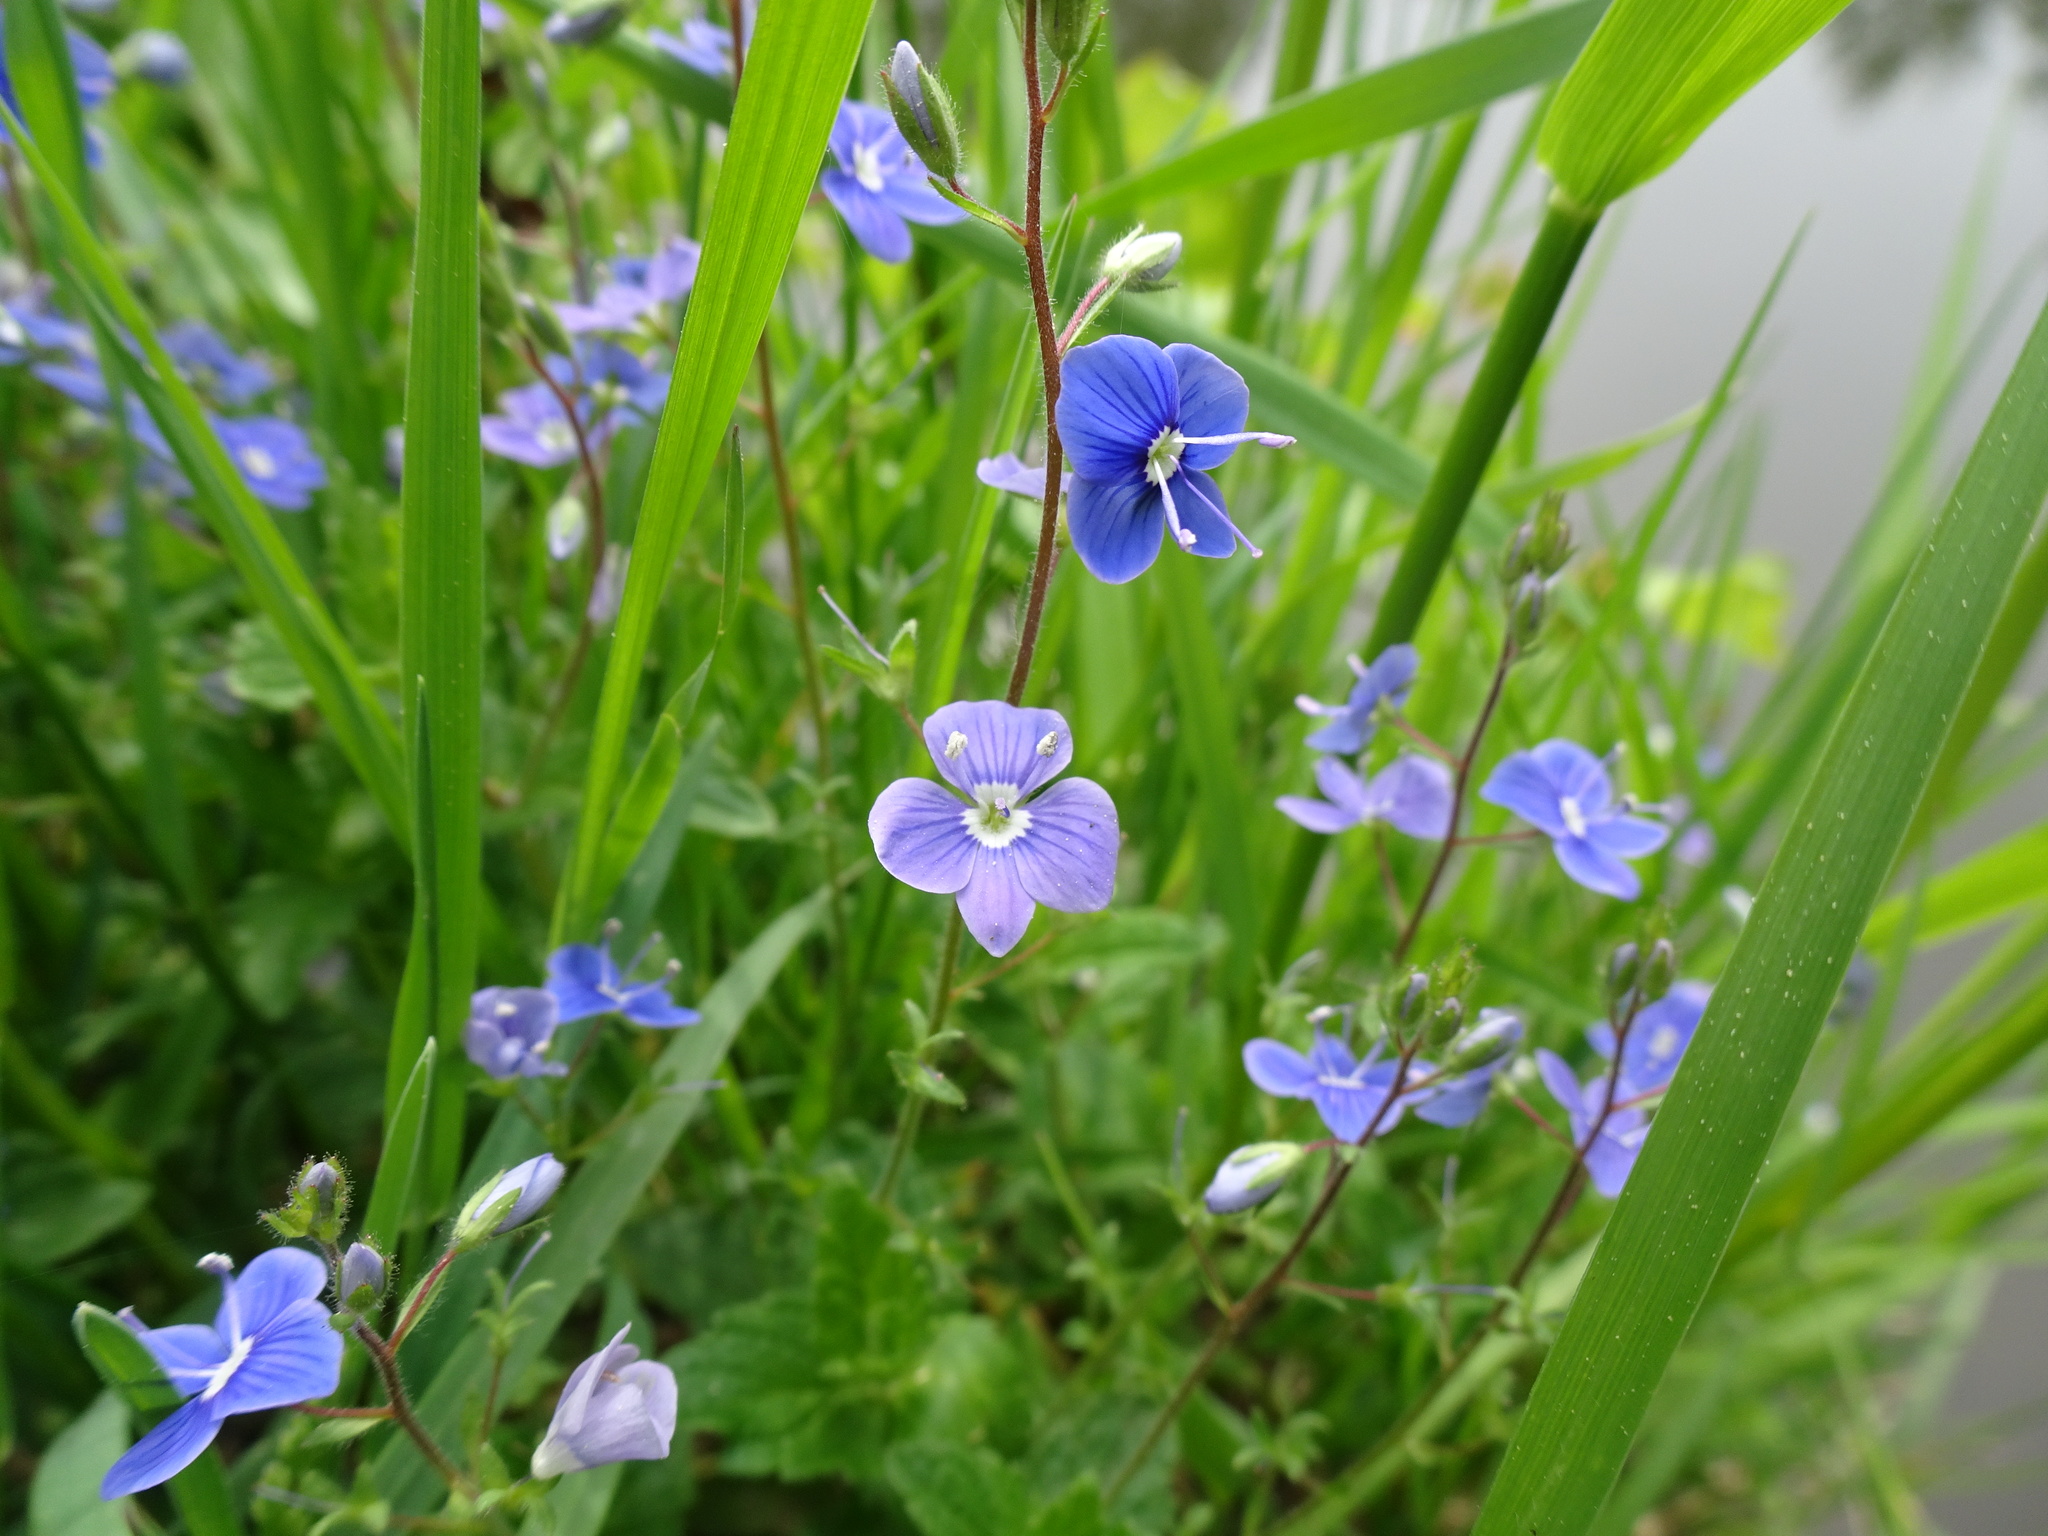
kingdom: Plantae
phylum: Tracheophyta
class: Magnoliopsida
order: Lamiales
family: Plantaginaceae
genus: Veronica
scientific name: Veronica chamaedrys
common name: Germander speedwell
